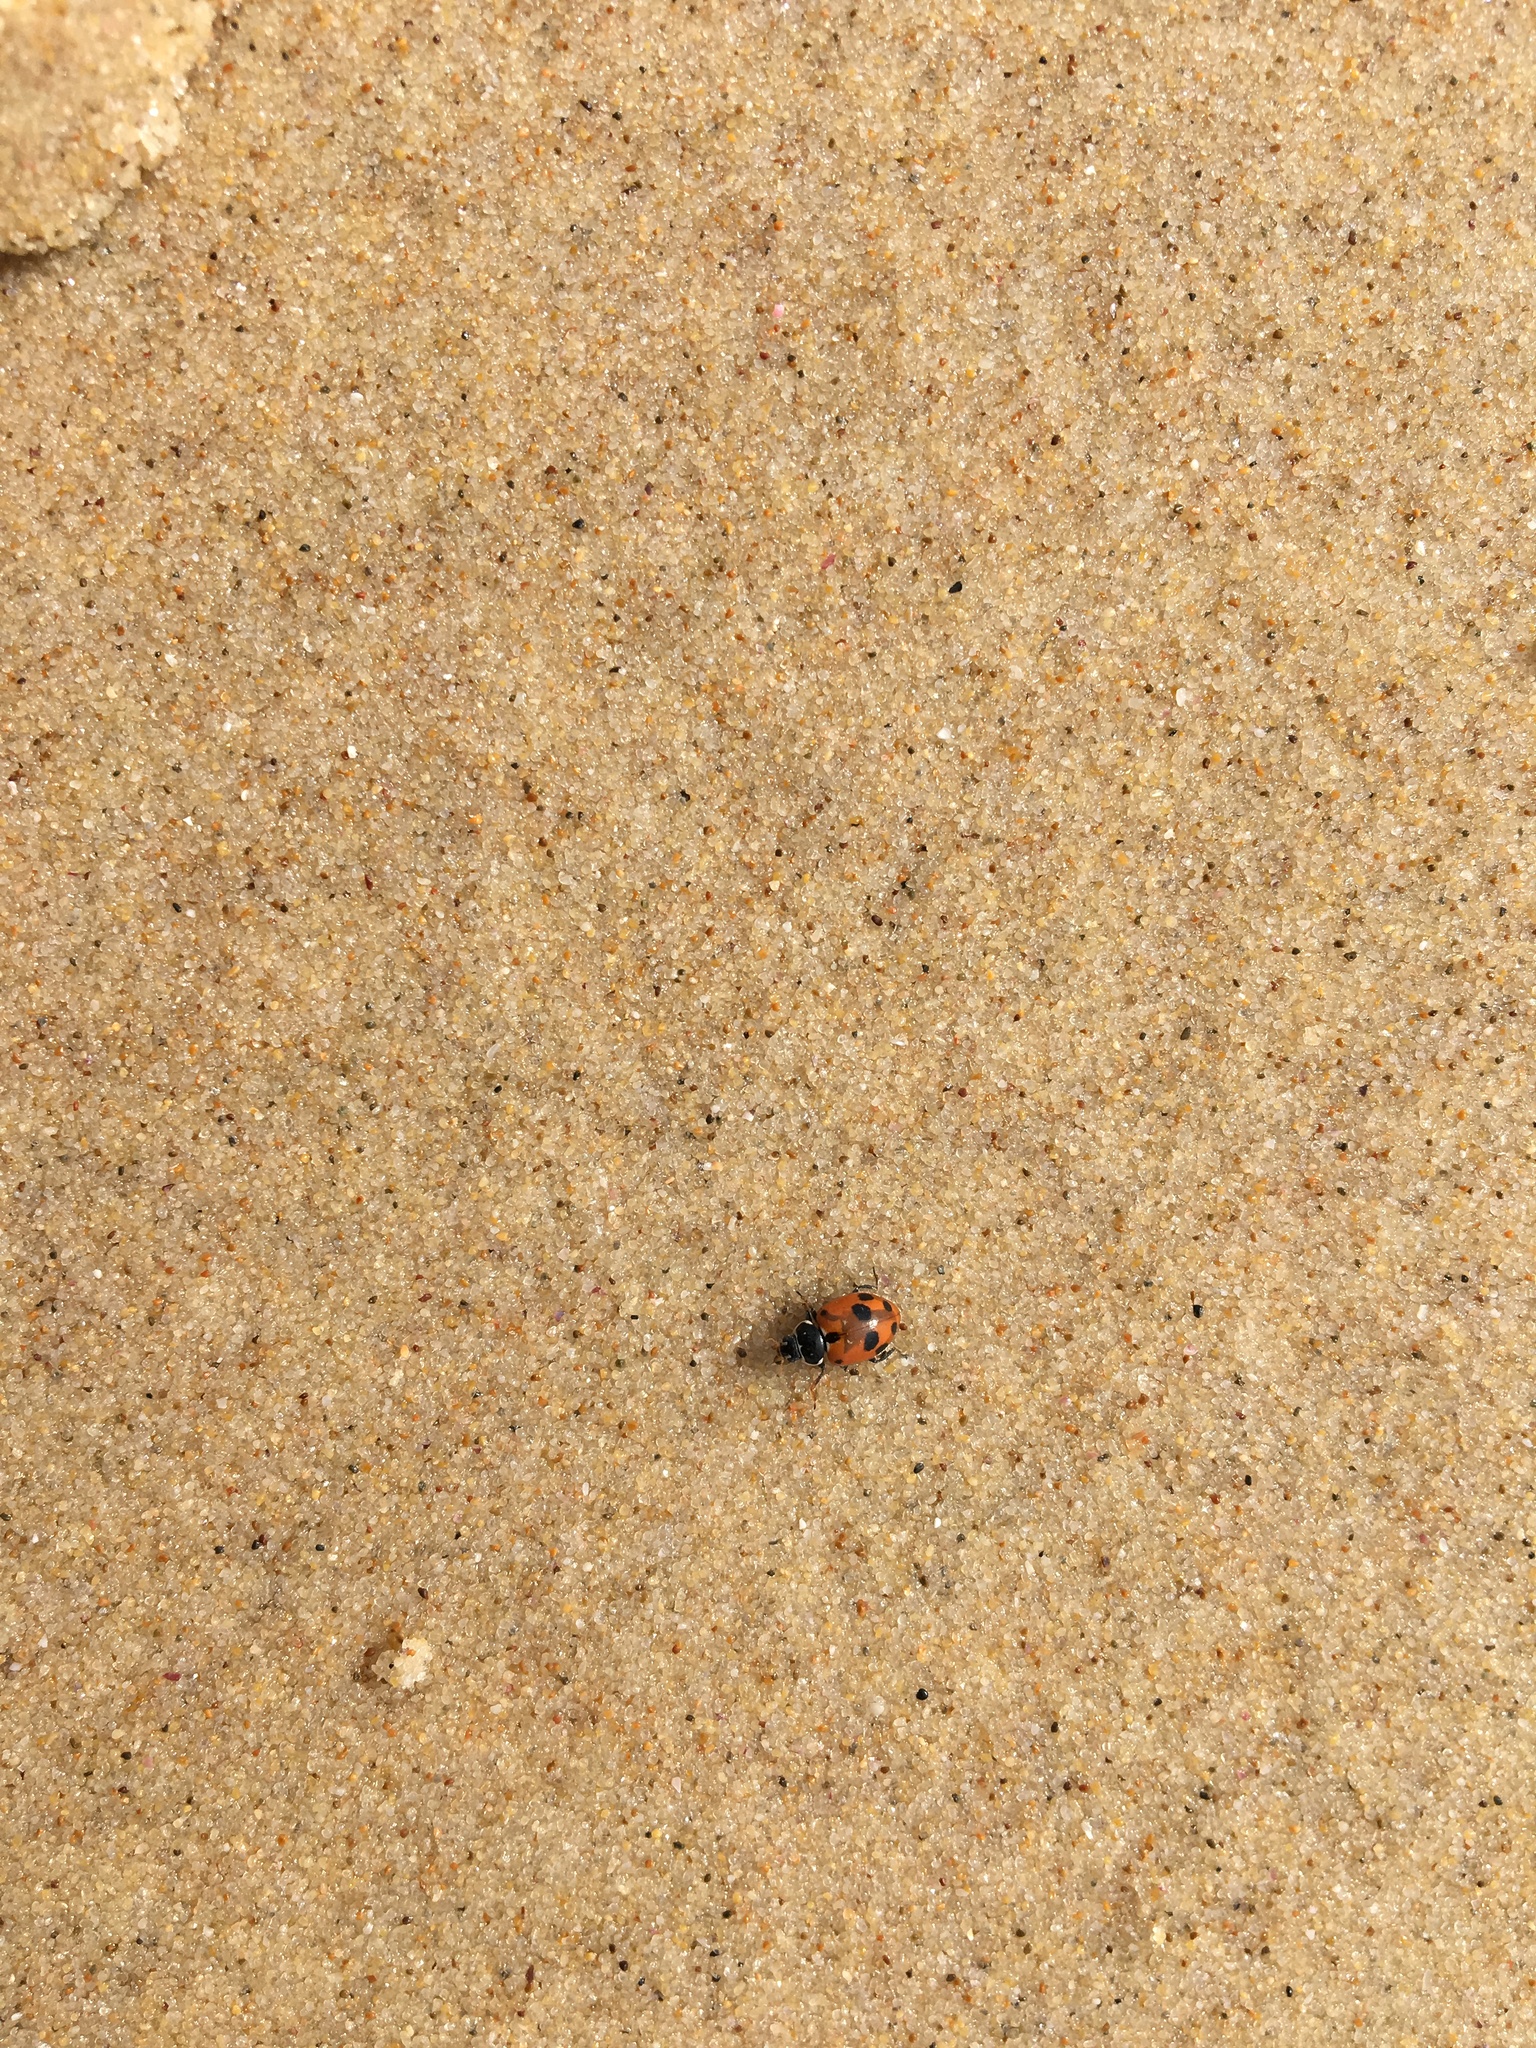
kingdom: Animalia
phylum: Arthropoda
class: Insecta
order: Coleoptera
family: Coccinellidae
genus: Hippodamia
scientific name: Hippodamia variegata
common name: Ladybird beetle
